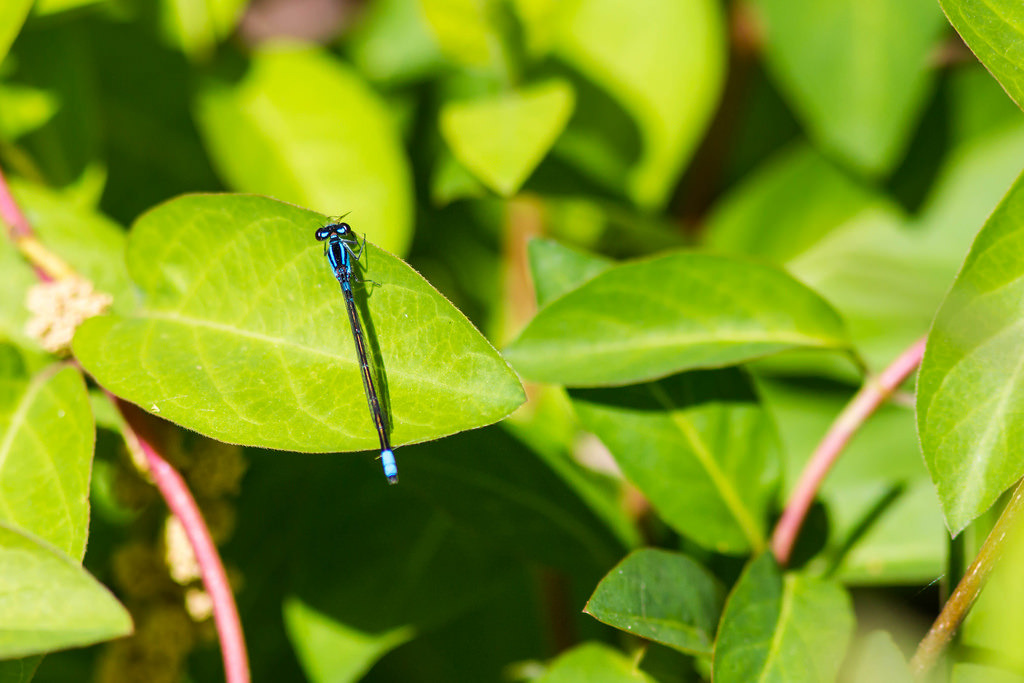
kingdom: Animalia
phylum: Arthropoda
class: Insecta
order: Odonata
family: Coenagrionidae
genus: Enallagma
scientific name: Enallagma geminatum
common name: Skimming bluet
